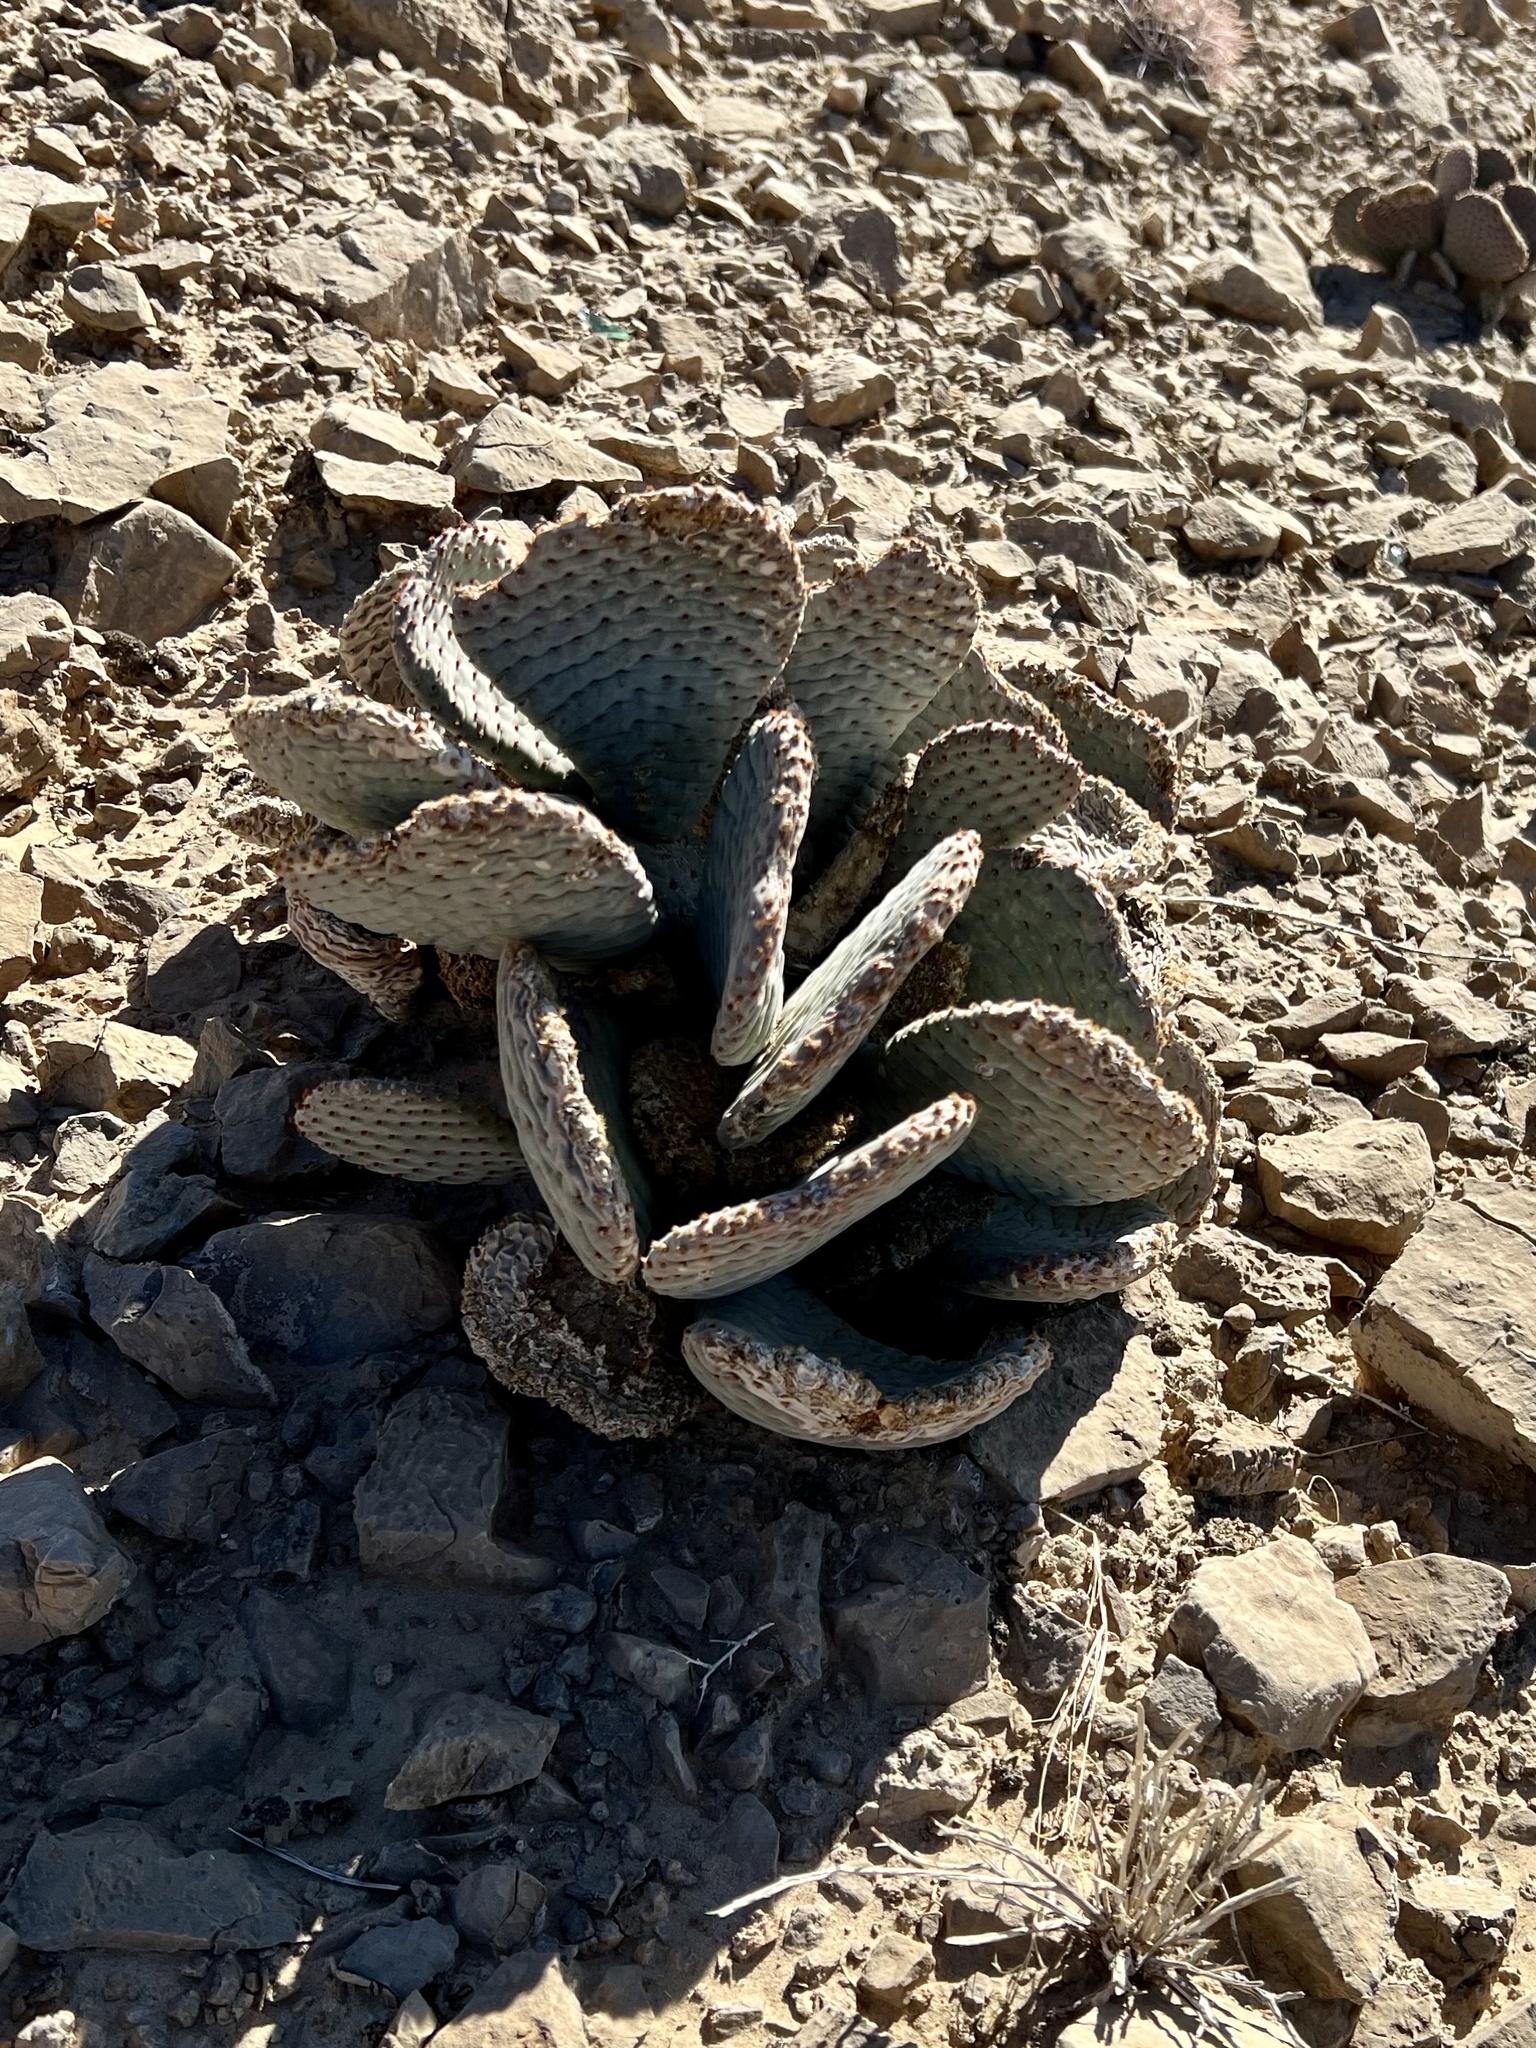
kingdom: Plantae
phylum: Tracheophyta
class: Magnoliopsida
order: Caryophyllales
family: Cactaceae
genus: Opuntia
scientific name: Opuntia basilaris
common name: Beavertail prickly-pear
